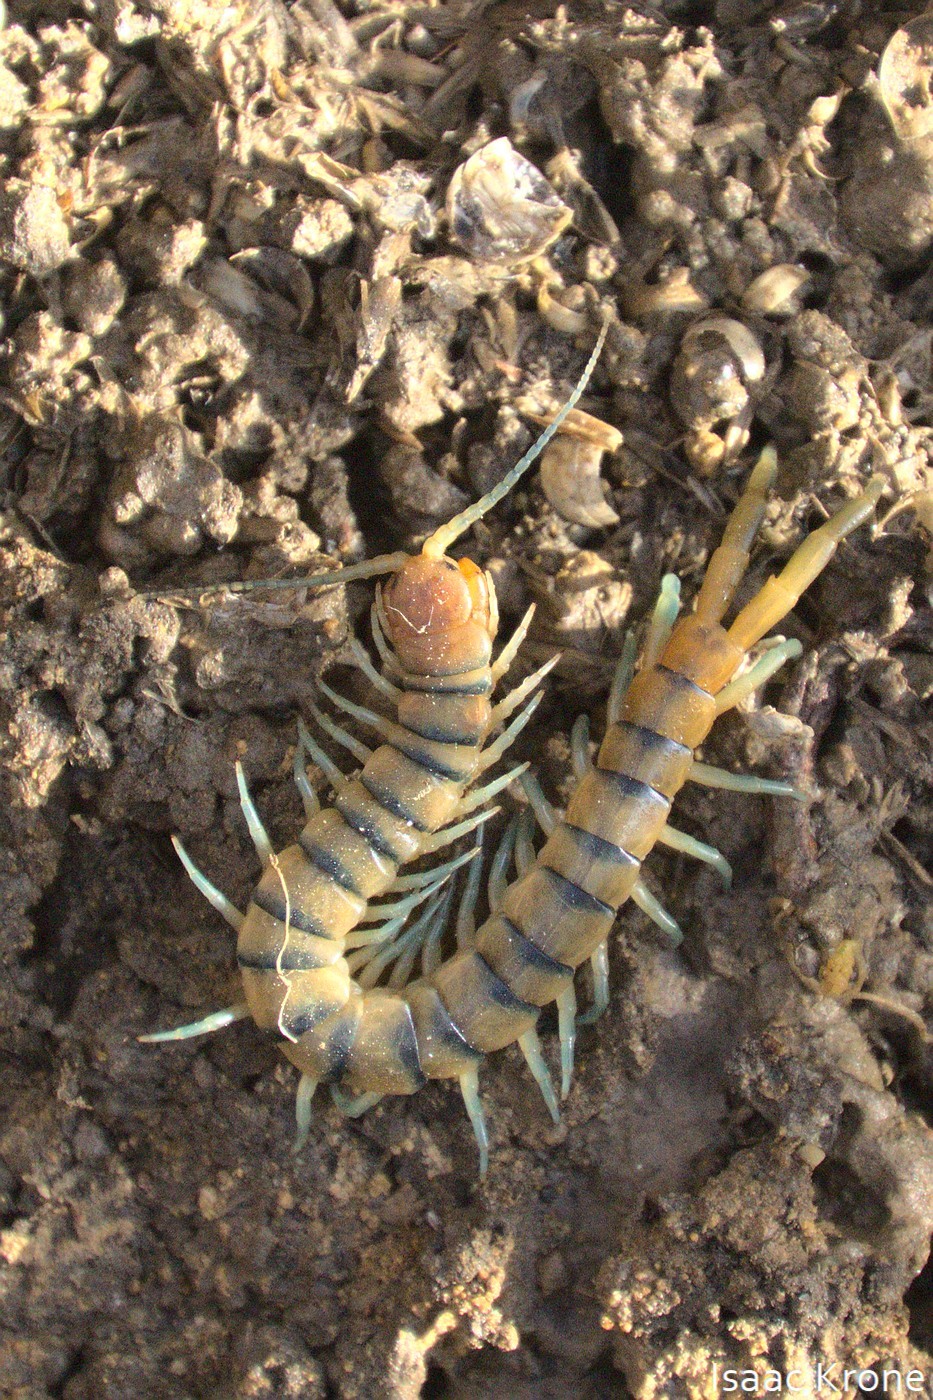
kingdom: Animalia
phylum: Arthropoda
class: Chilopoda
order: Scolopendromorpha
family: Scolopendridae
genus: Scolopendra
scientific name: Scolopendra polymorpha
